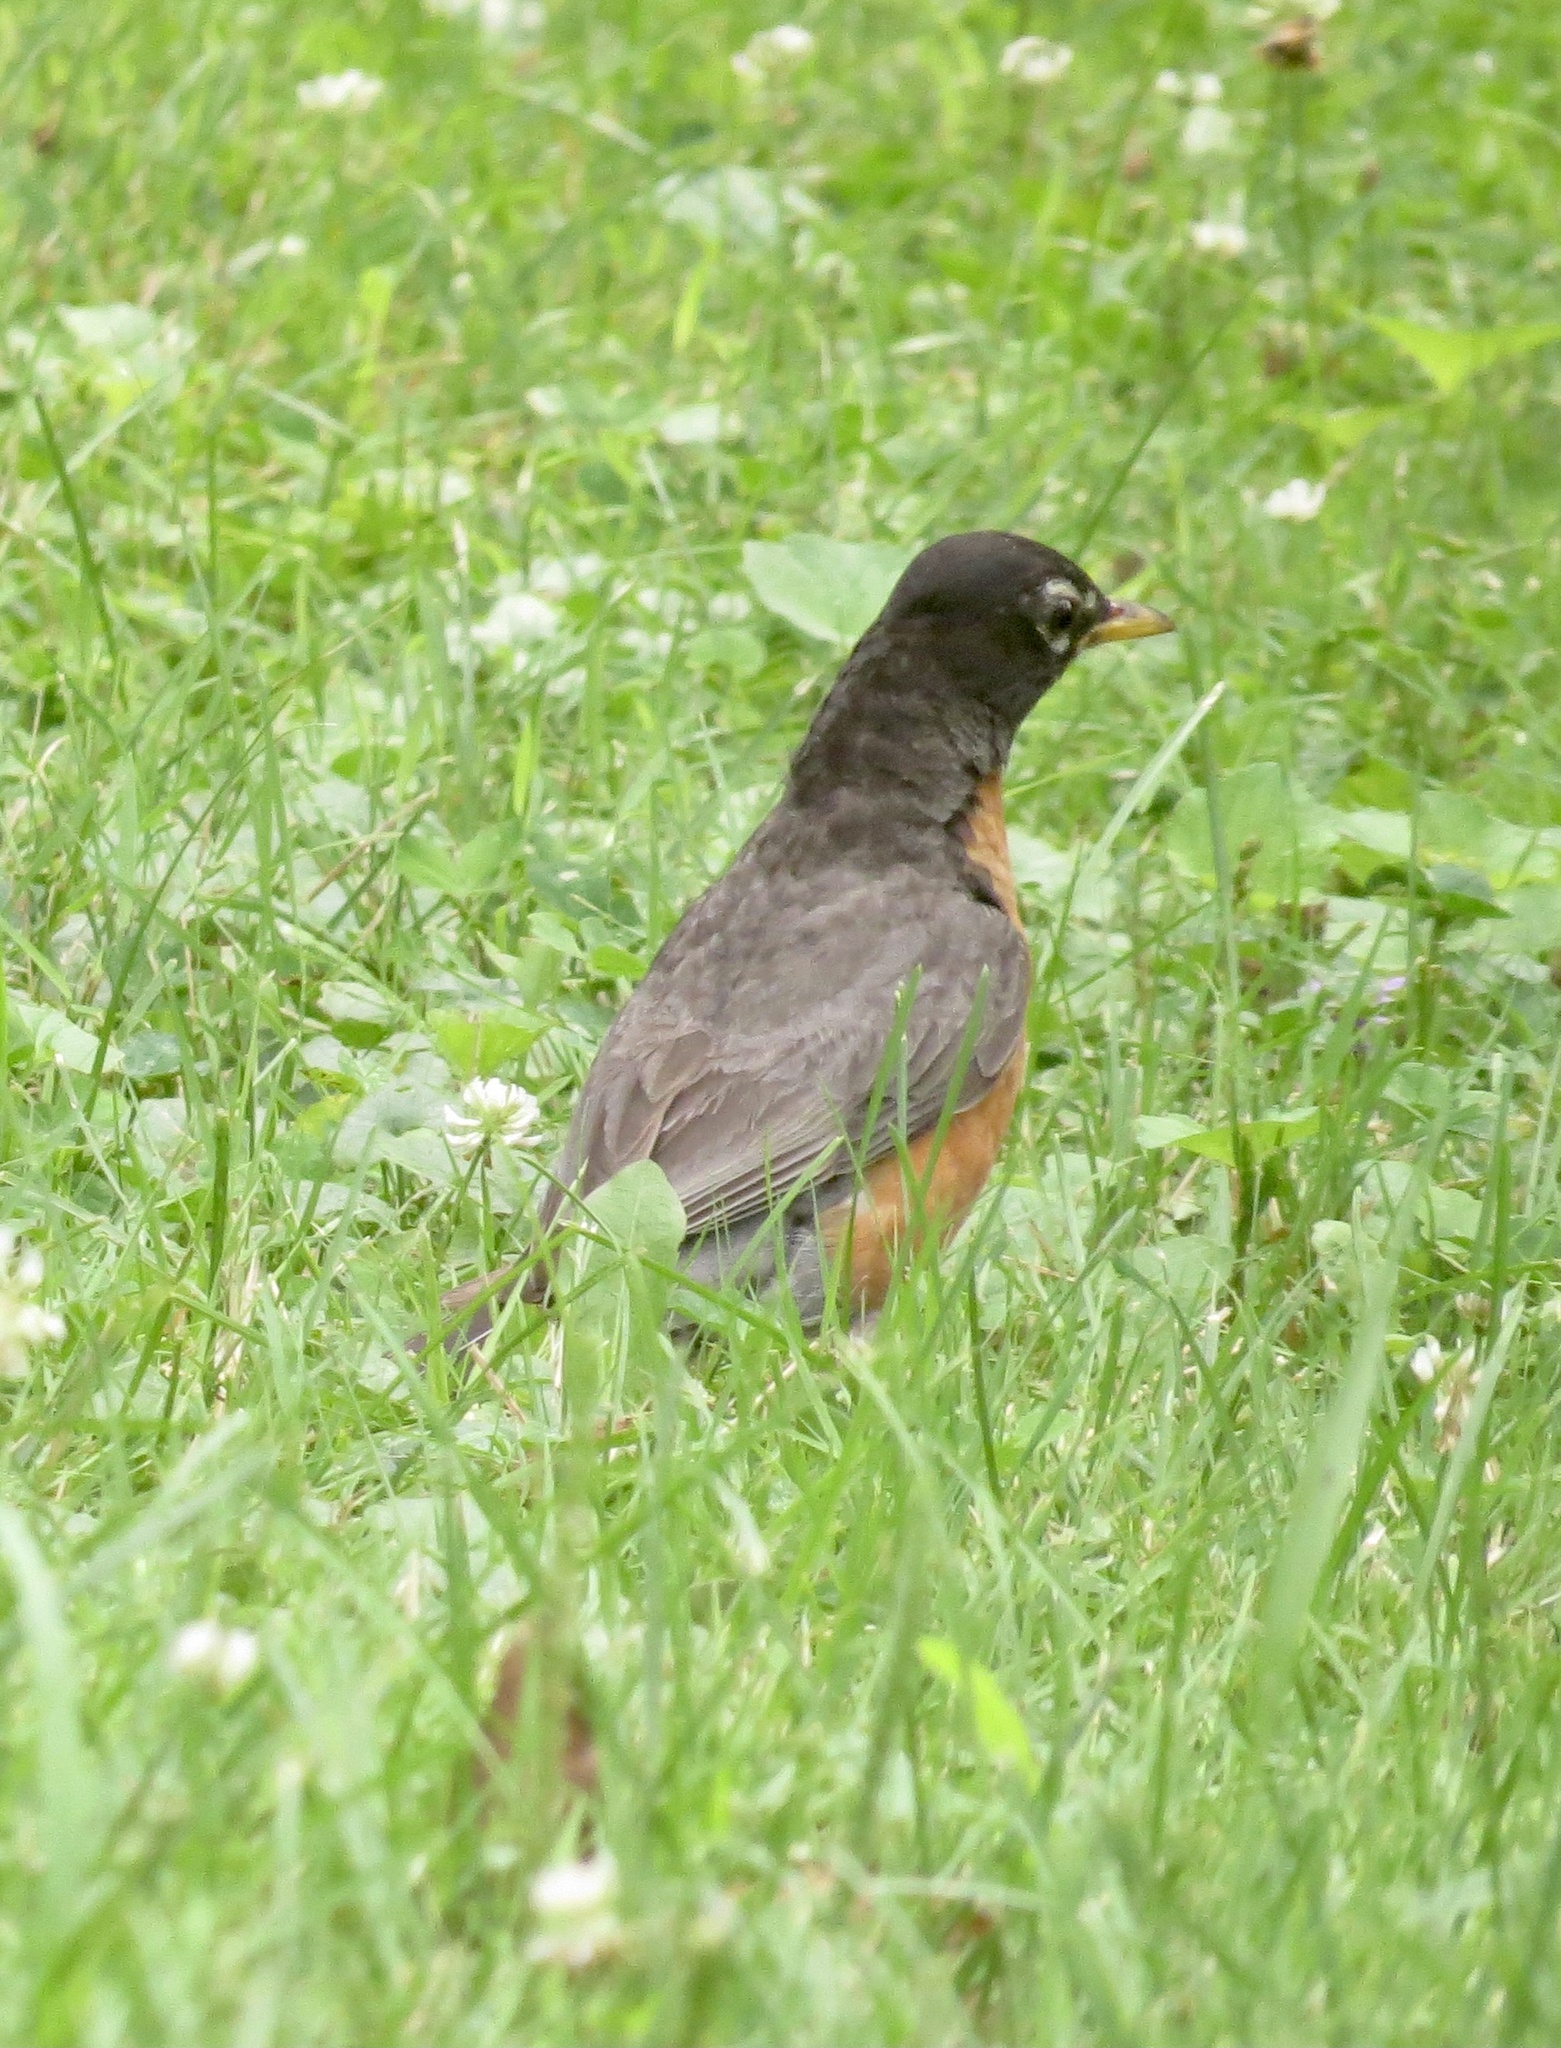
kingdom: Animalia
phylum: Chordata
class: Aves
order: Passeriformes
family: Turdidae
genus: Turdus
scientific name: Turdus migratorius
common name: American robin
